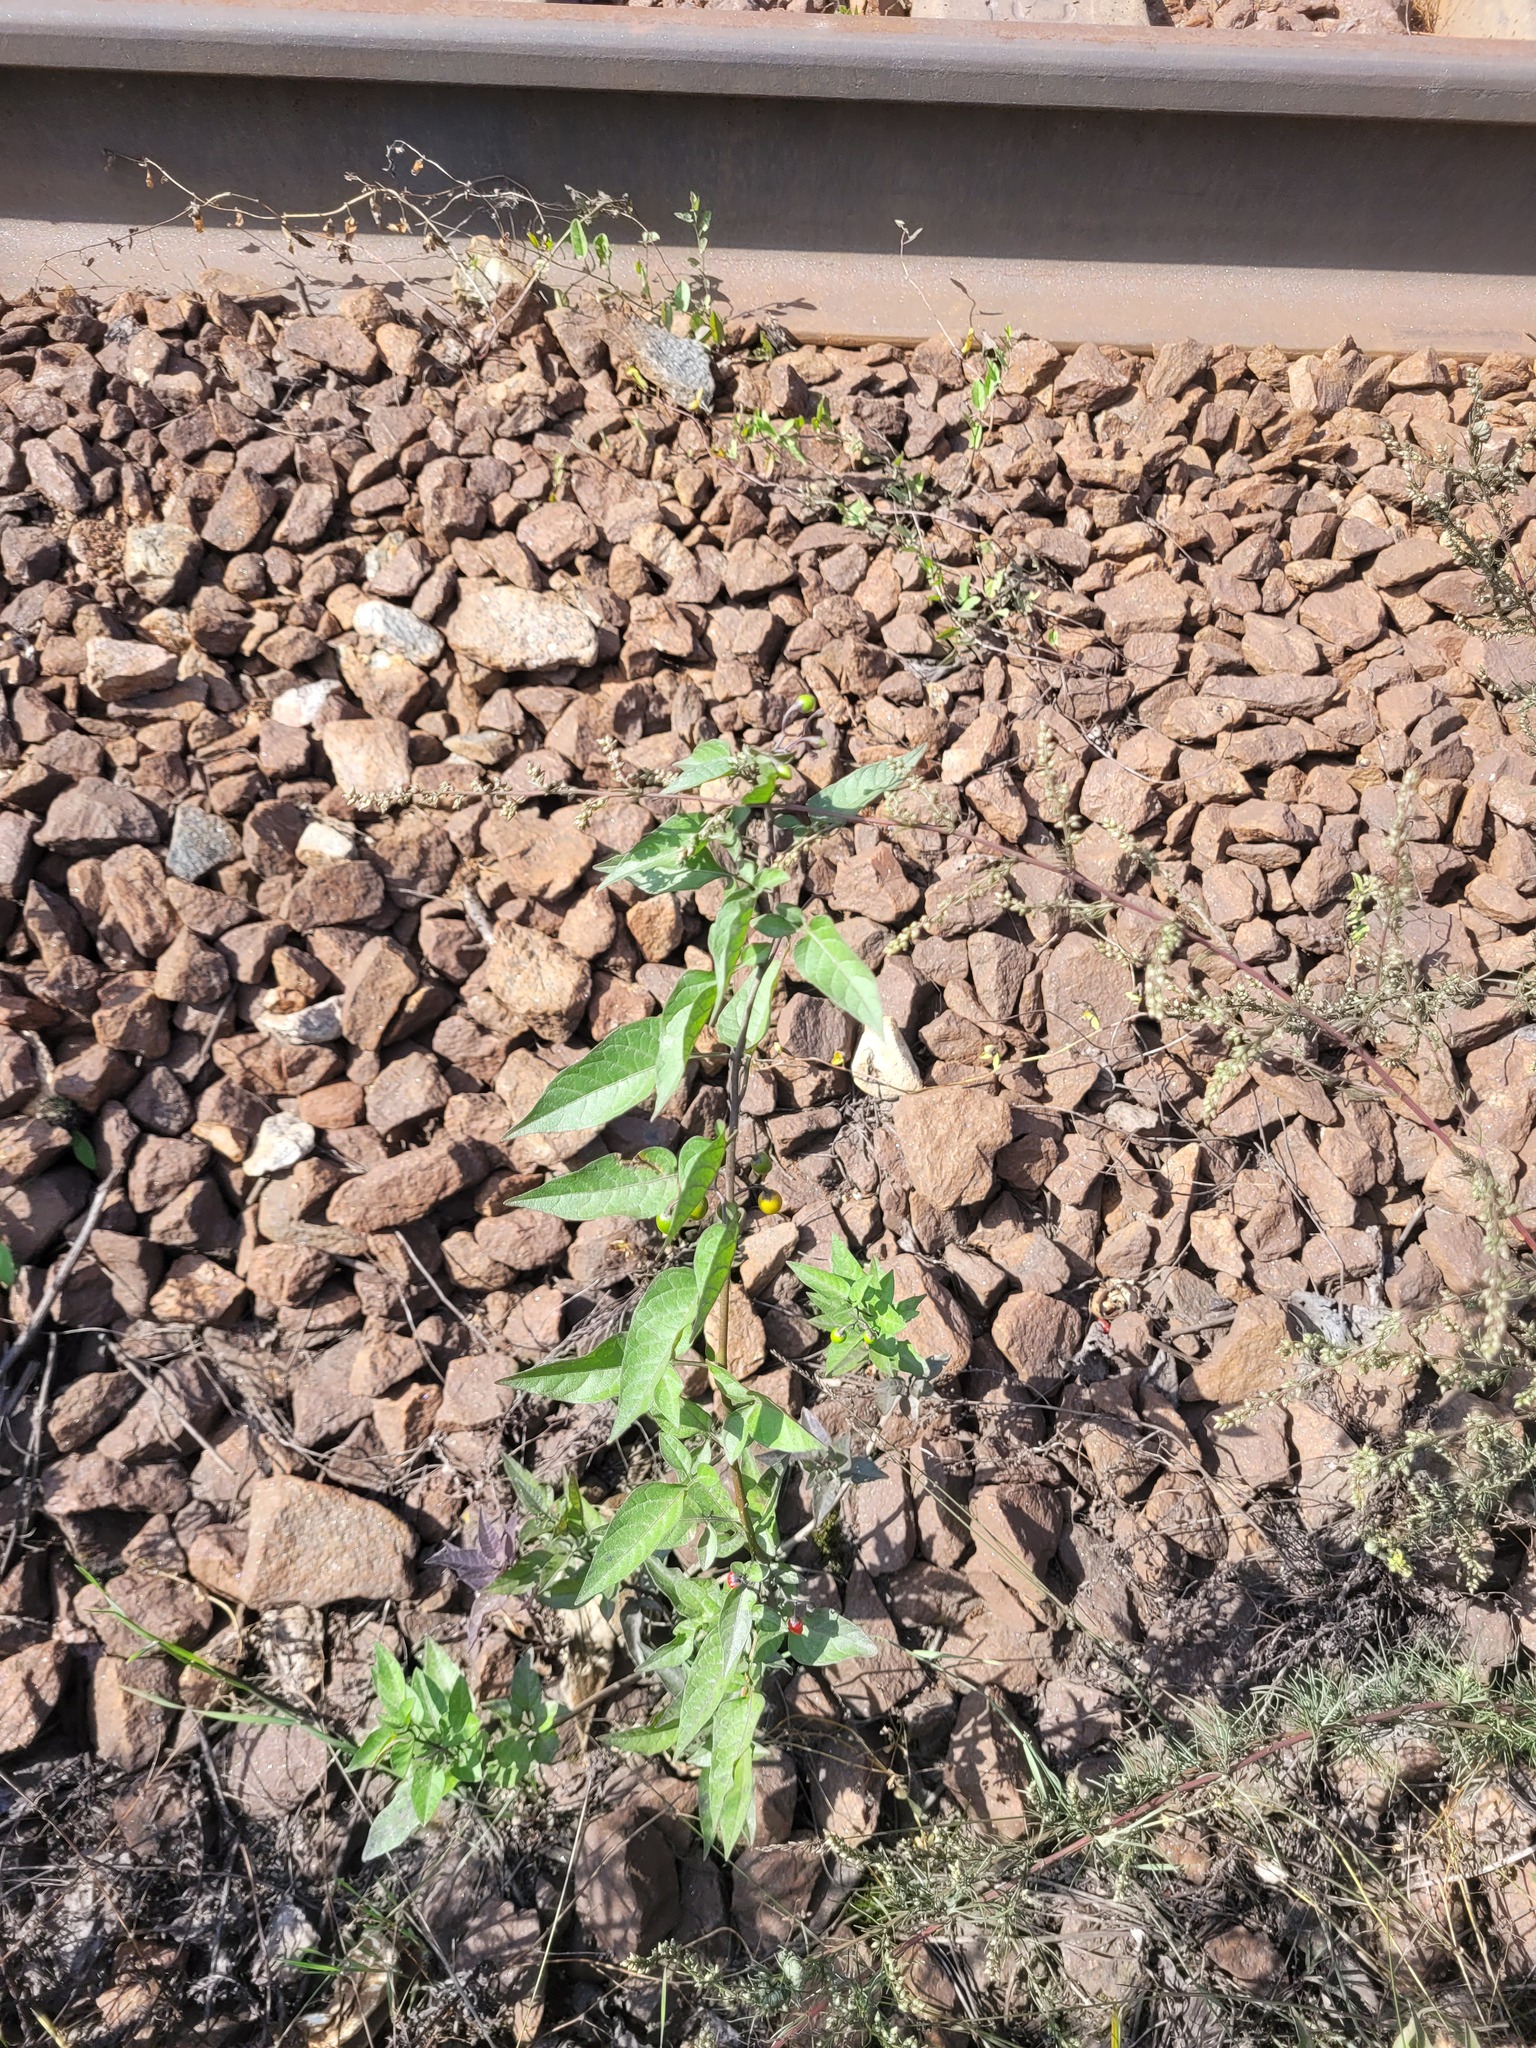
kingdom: Plantae
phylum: Tracheophyta
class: Magnoliopsida
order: Solanales
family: Solanaceae
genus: Solanum
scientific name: Solanum dulcamara
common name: Climbing nightshade
